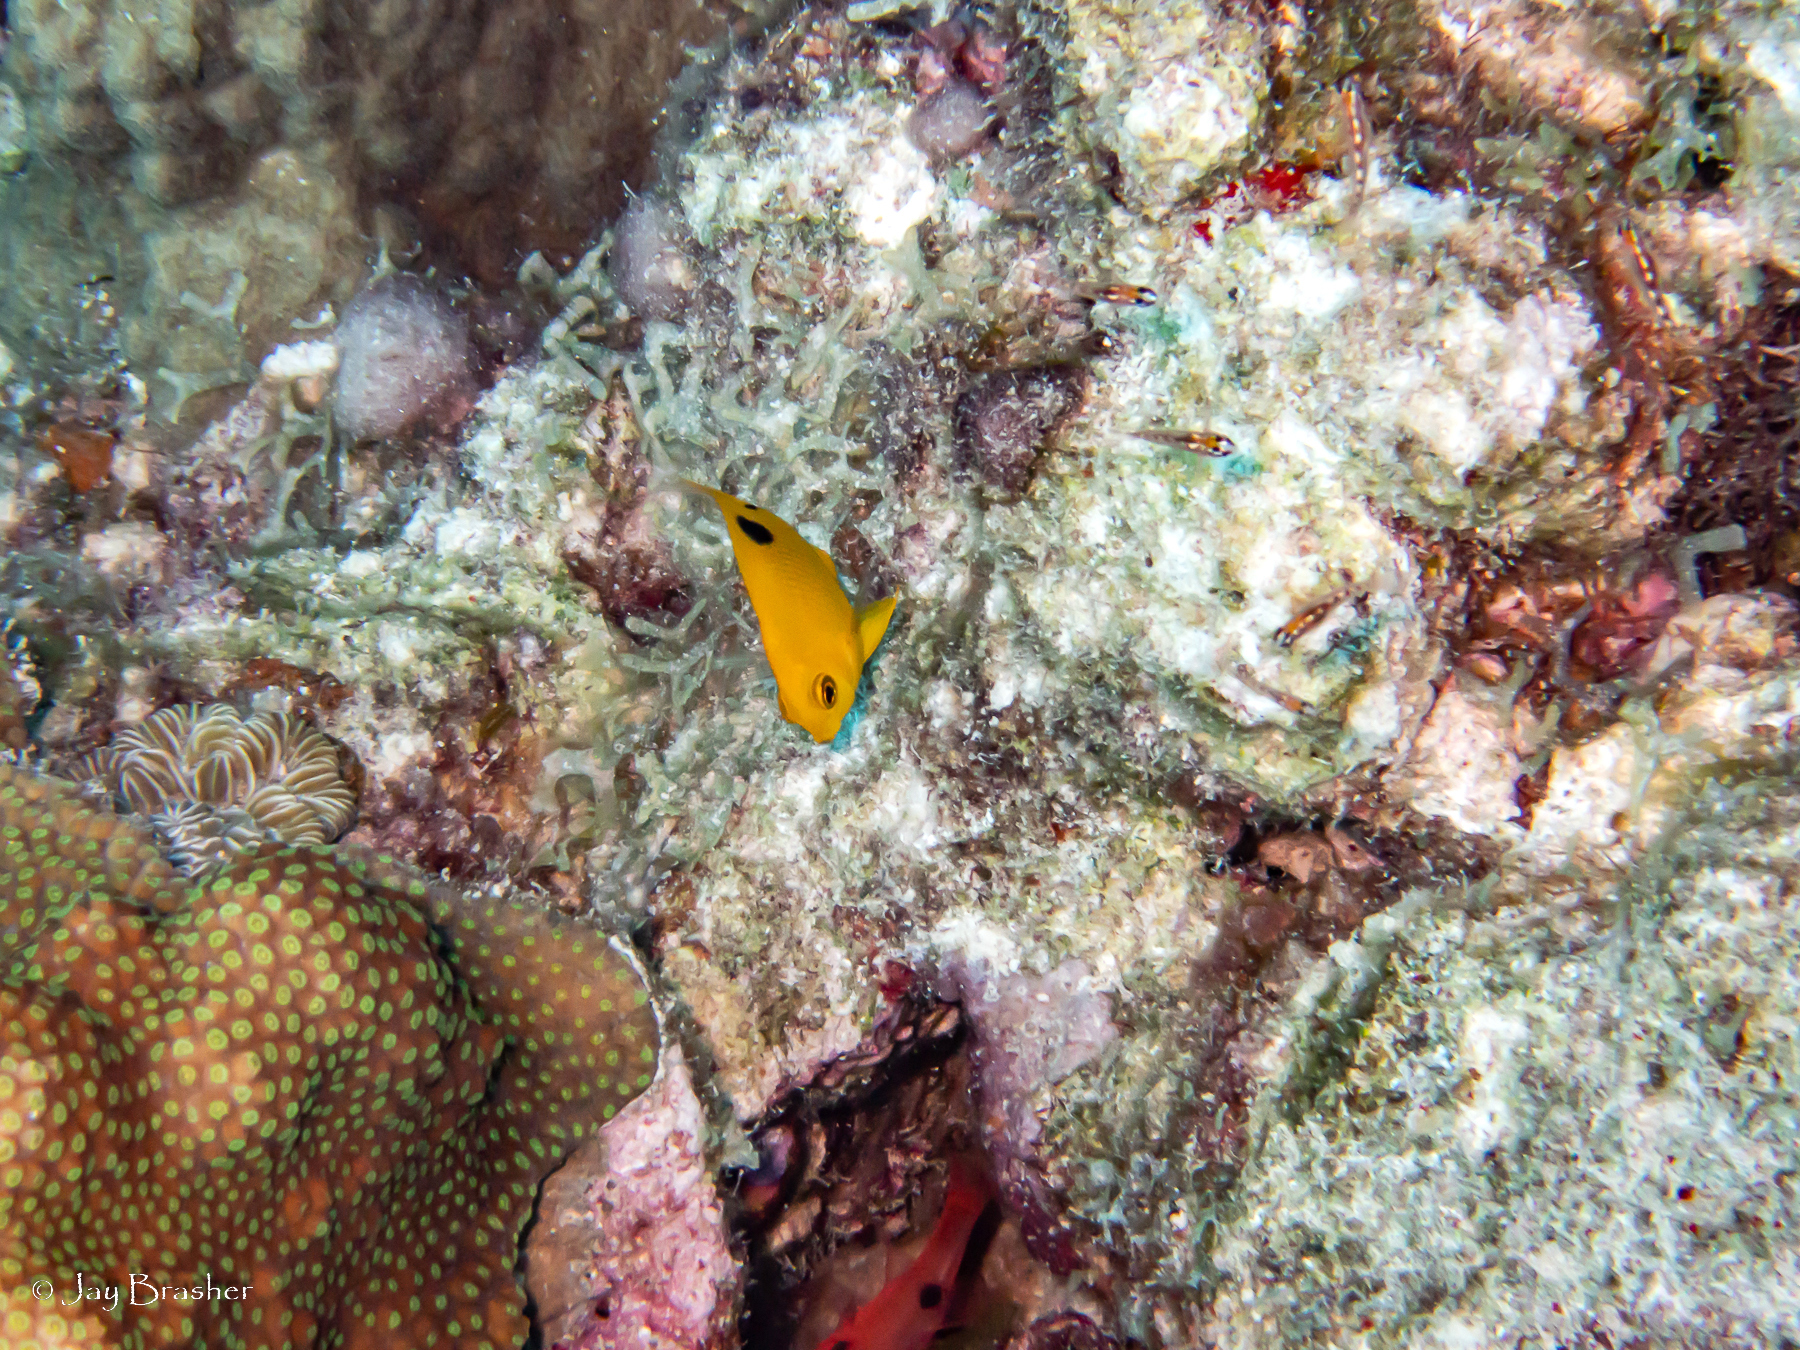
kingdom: Animalia
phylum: Chordata
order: Perciformes
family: Pomacentridae
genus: Stegastes
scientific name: Stegastes planifrons
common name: Threespot damselfish
